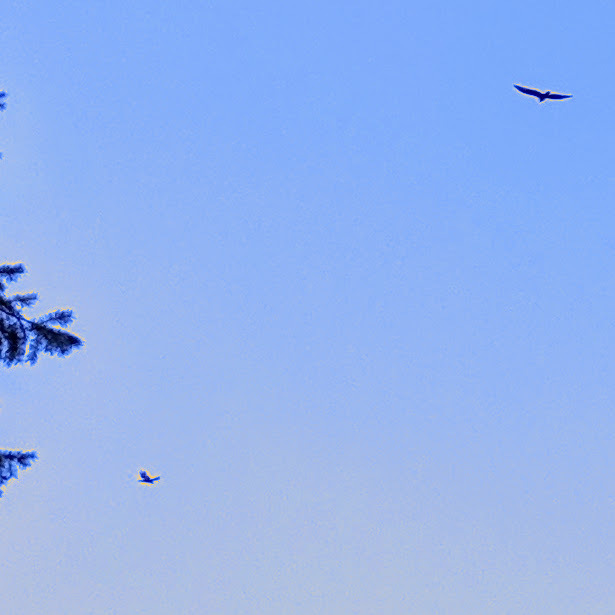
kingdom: Animalia
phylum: Chordata
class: Aves
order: Accipitriformes
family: Cathartidae
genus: Cathartes
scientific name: Cathartes aura
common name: Turkey vulture
